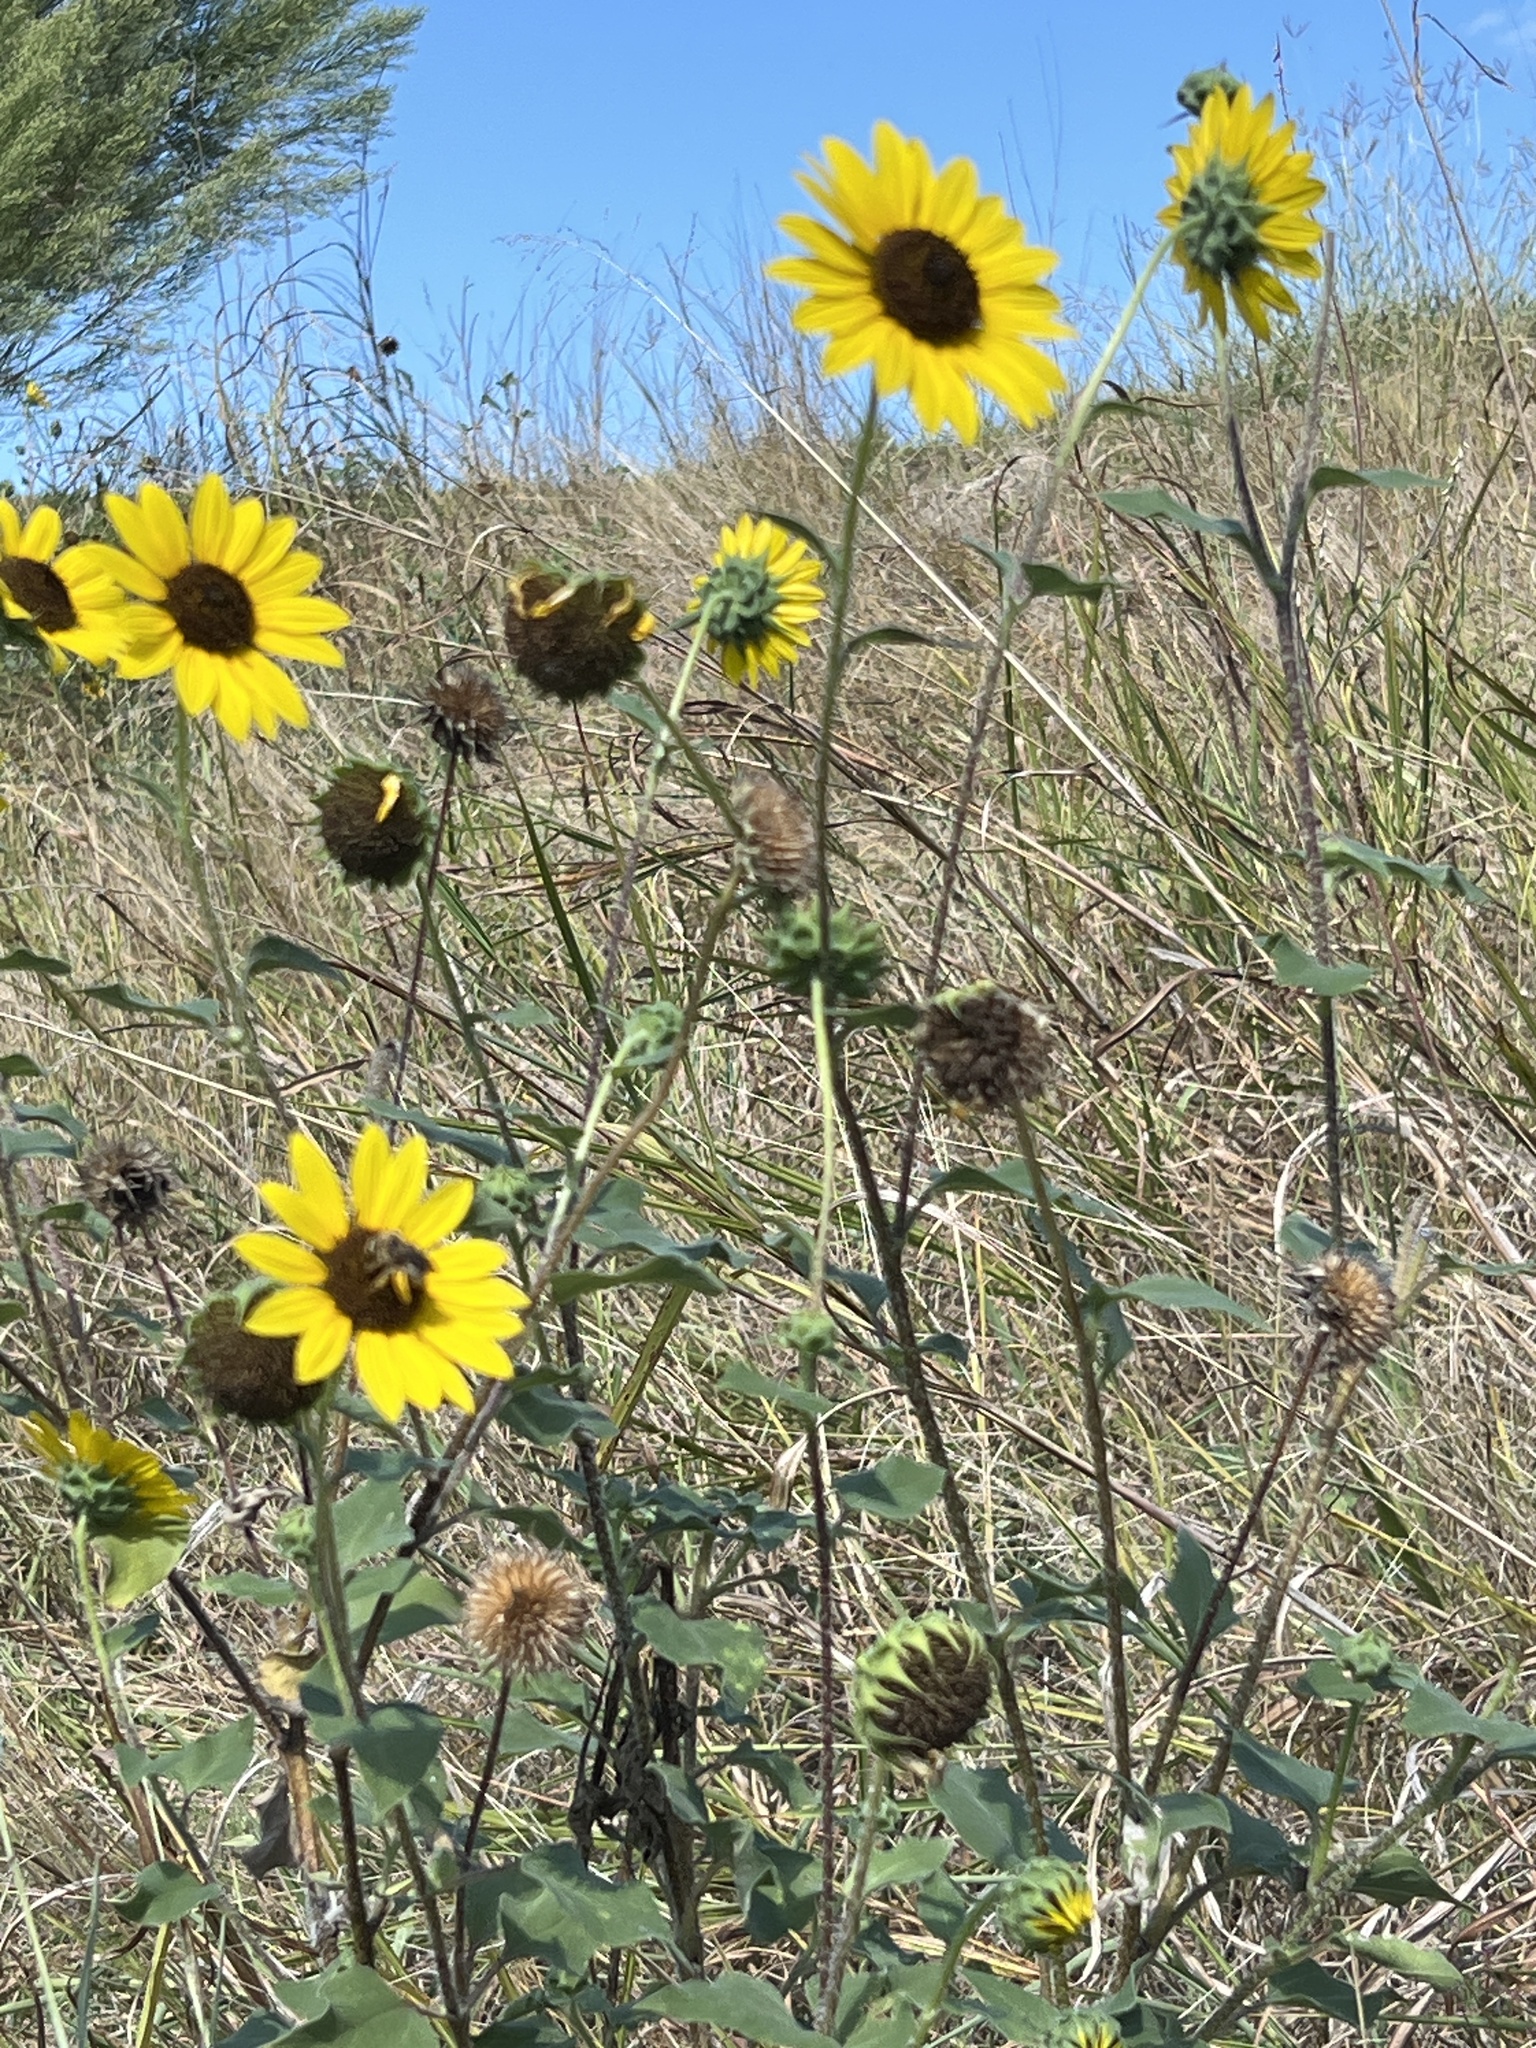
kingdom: Plantae
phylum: Tracheophyta
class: Magnoliopsida
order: Asterales
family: Asteraceae
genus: Helianthus
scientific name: Helianthus annuus
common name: Sunflower
